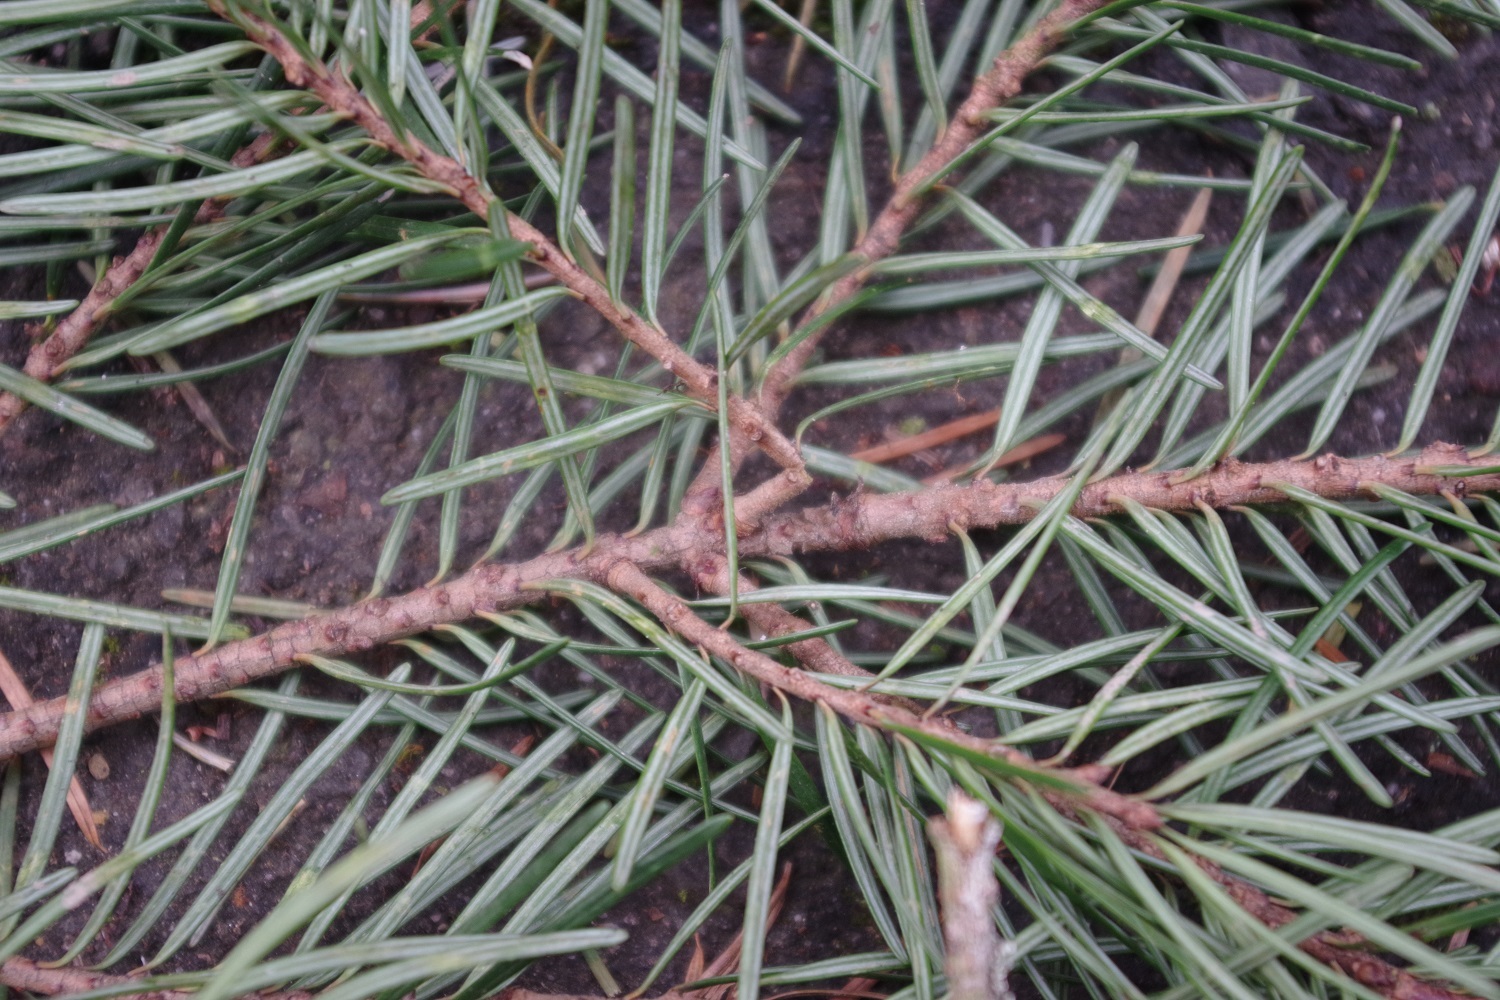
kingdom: Plantae
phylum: Tracheophyta
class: Pinopsida
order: Pinales
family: Pinaceae
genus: Pseudotsuga
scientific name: Pseudotsuga menziesii
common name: Douglas fir
